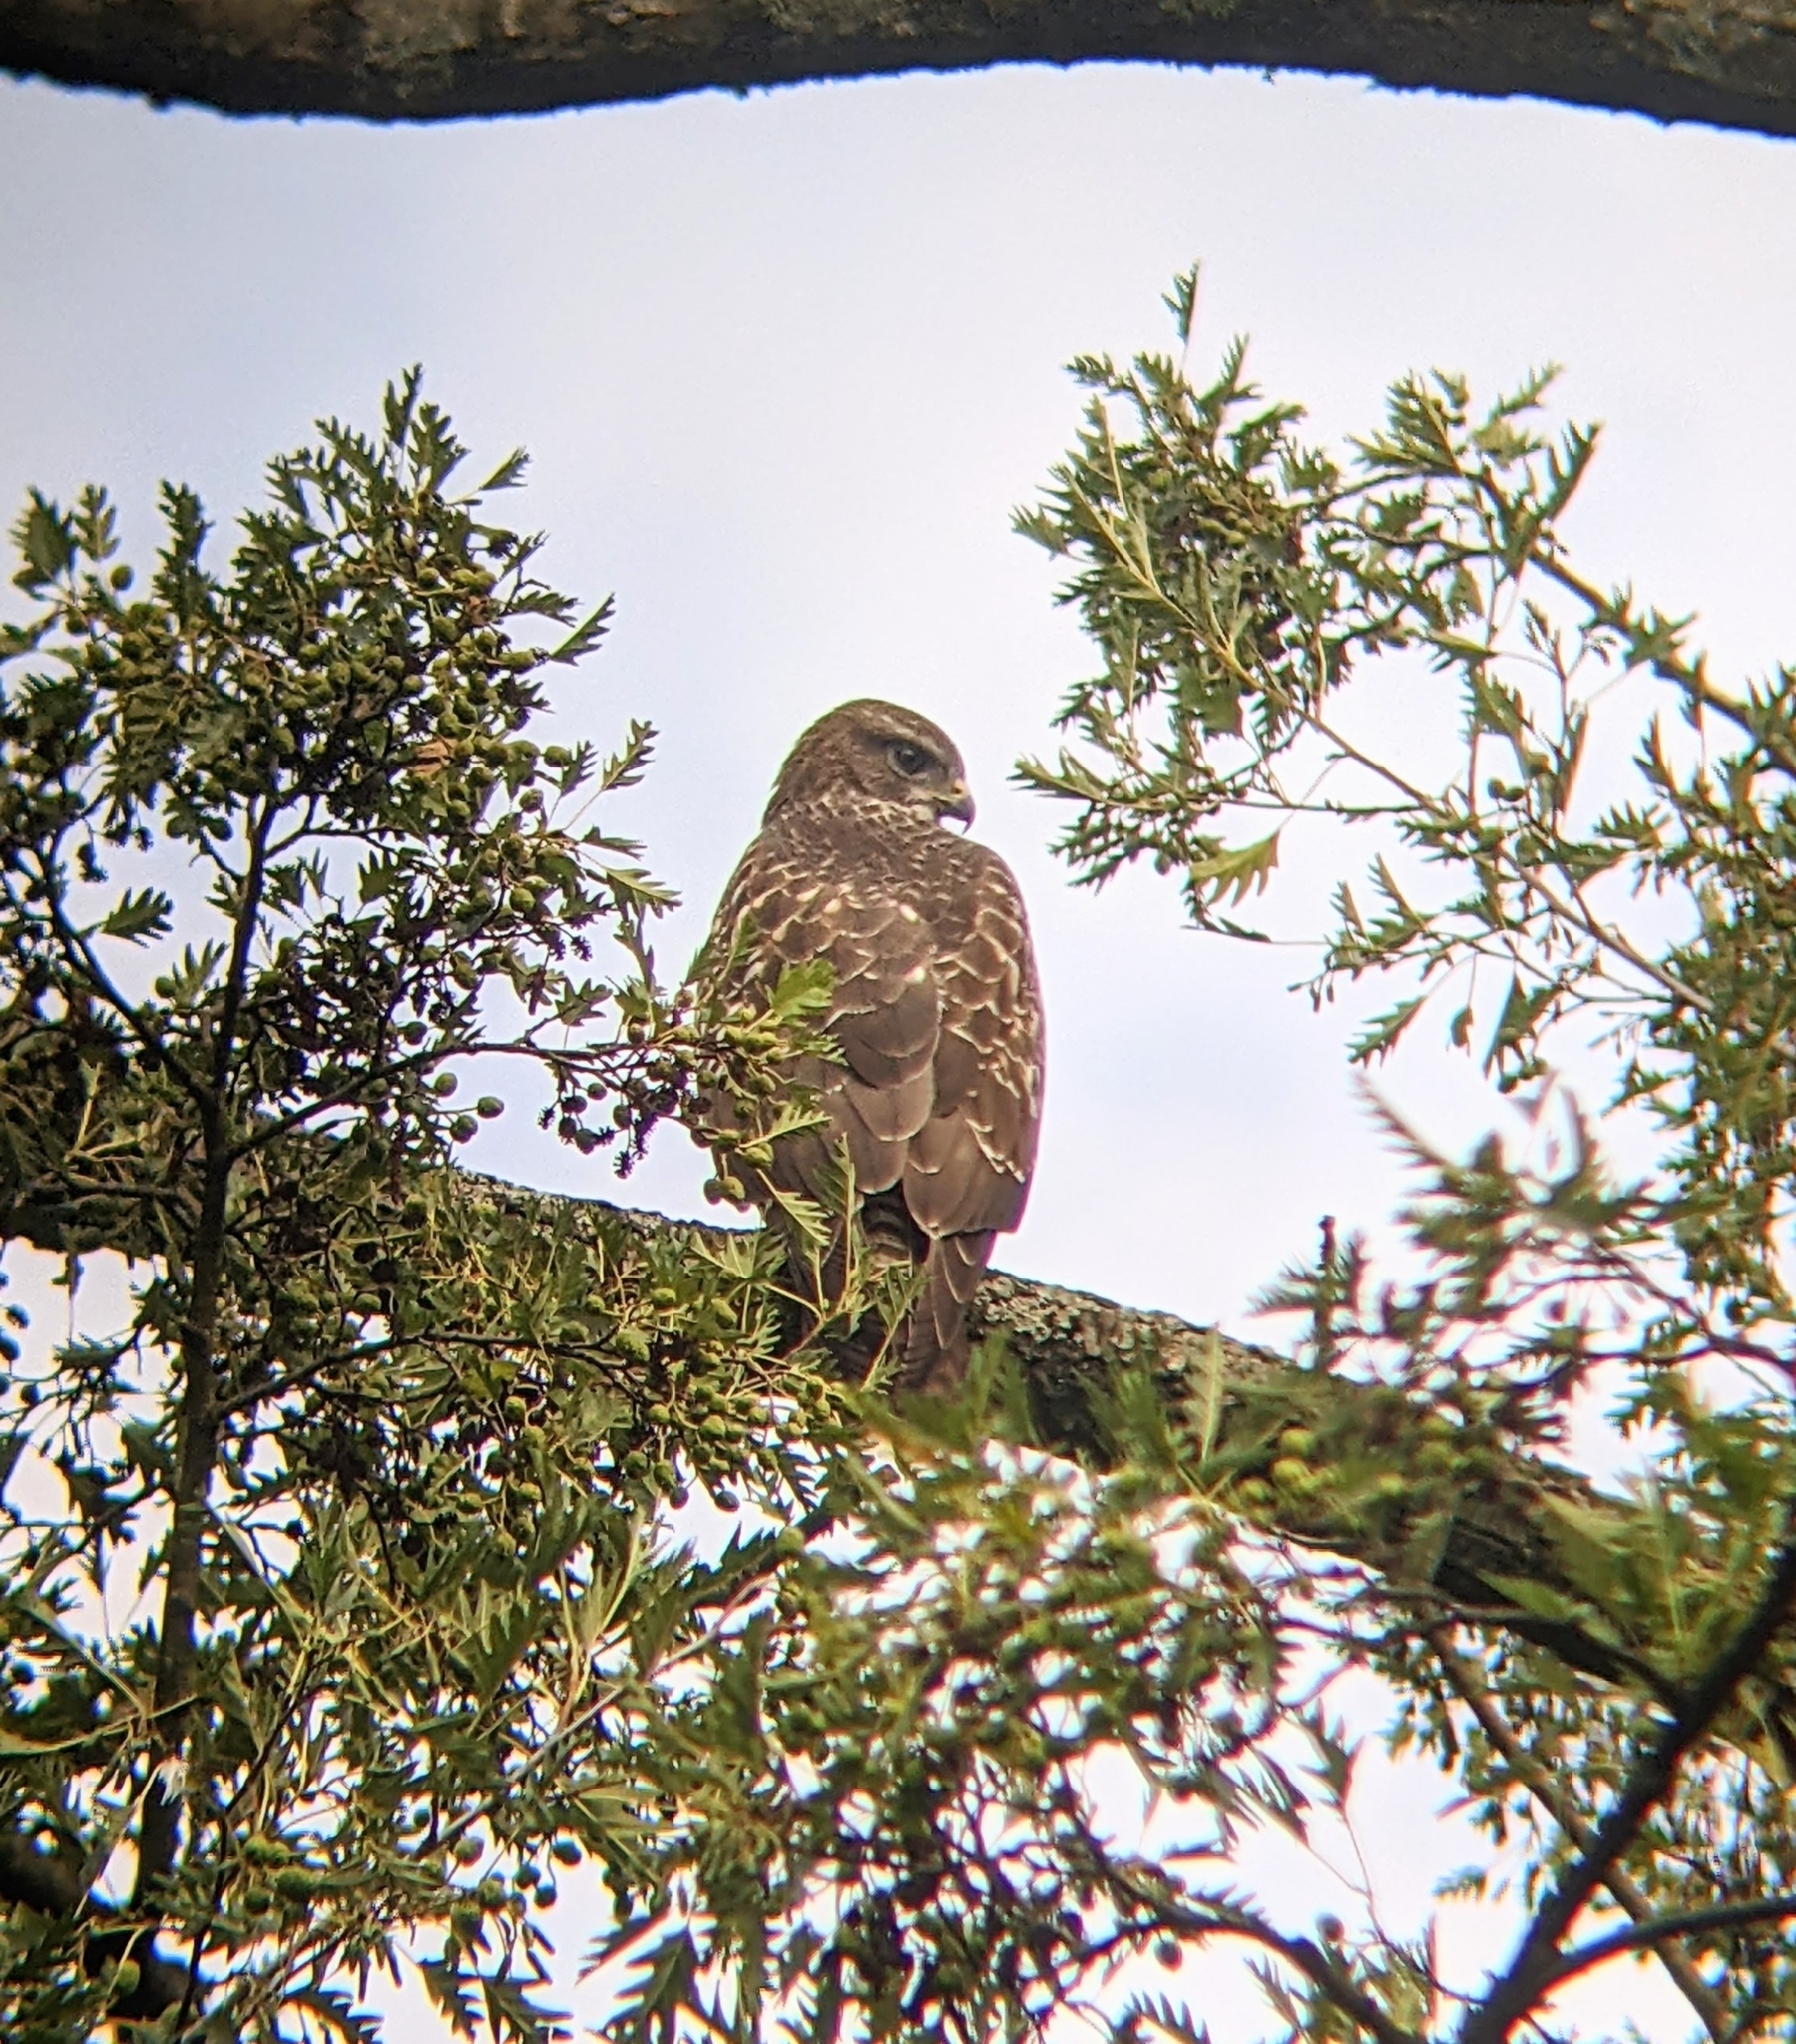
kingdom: Animalia
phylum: Chordata
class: Aves
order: Accipitriformes
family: Accipitridae
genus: Buteo
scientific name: Buteo buteo
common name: Common buzzard
